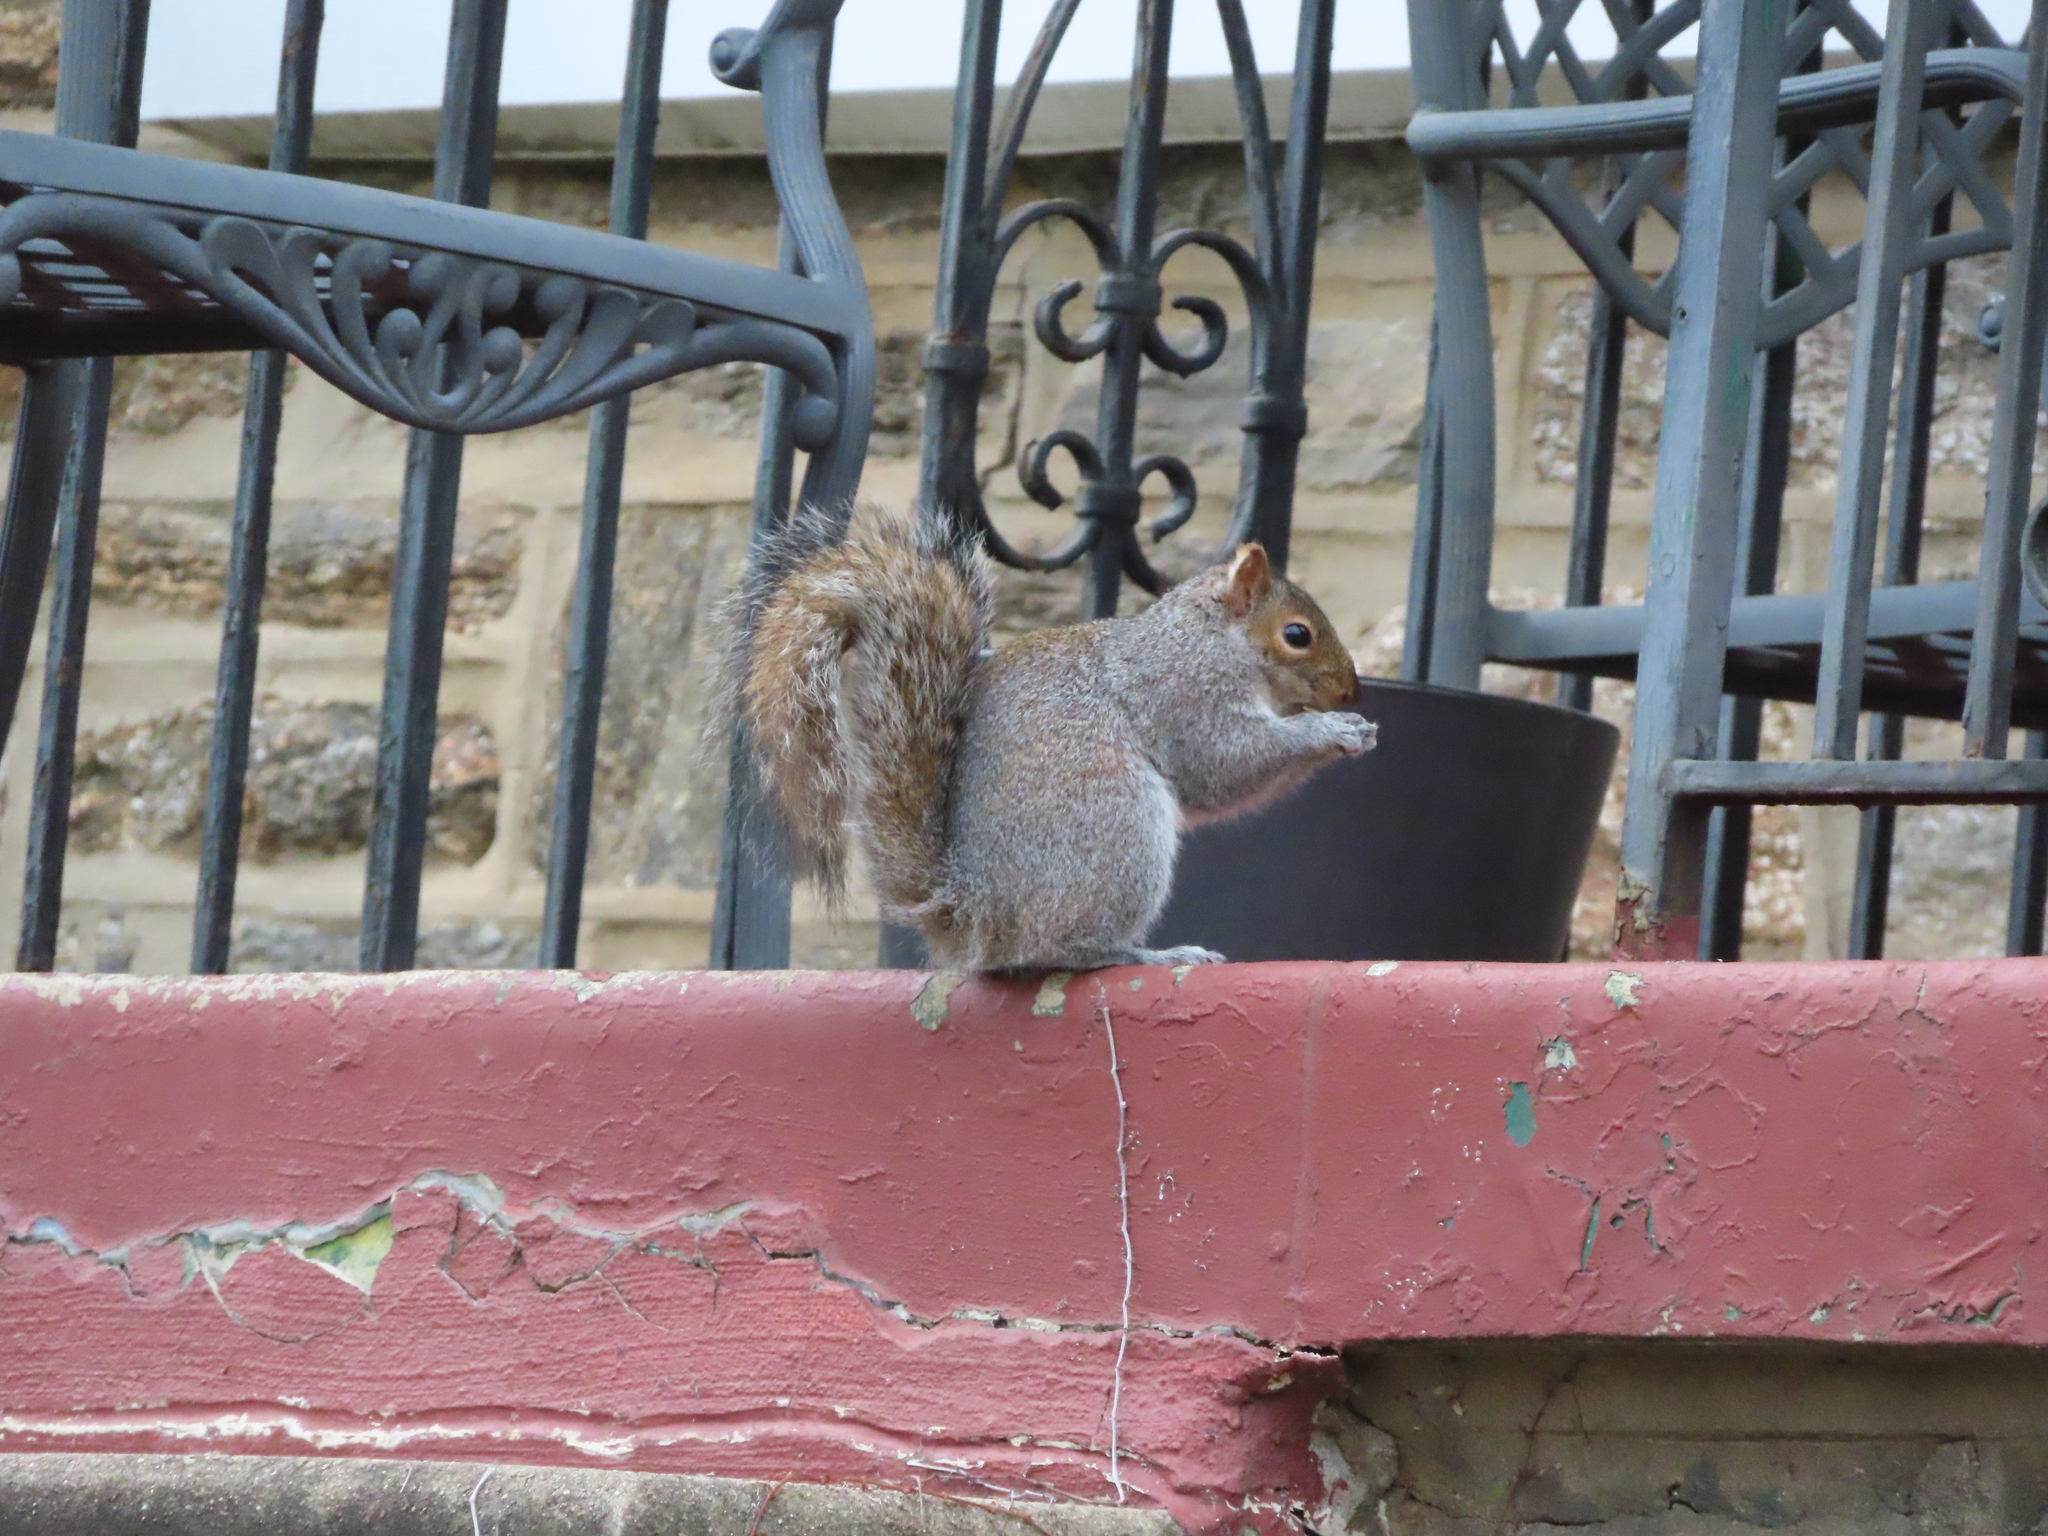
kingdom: Animalia
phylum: Chordata
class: Mammalia
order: Rodentia
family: Sciuridae
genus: Sciurus
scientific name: Sciurus carolinensis
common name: Eastern gray squirrel
